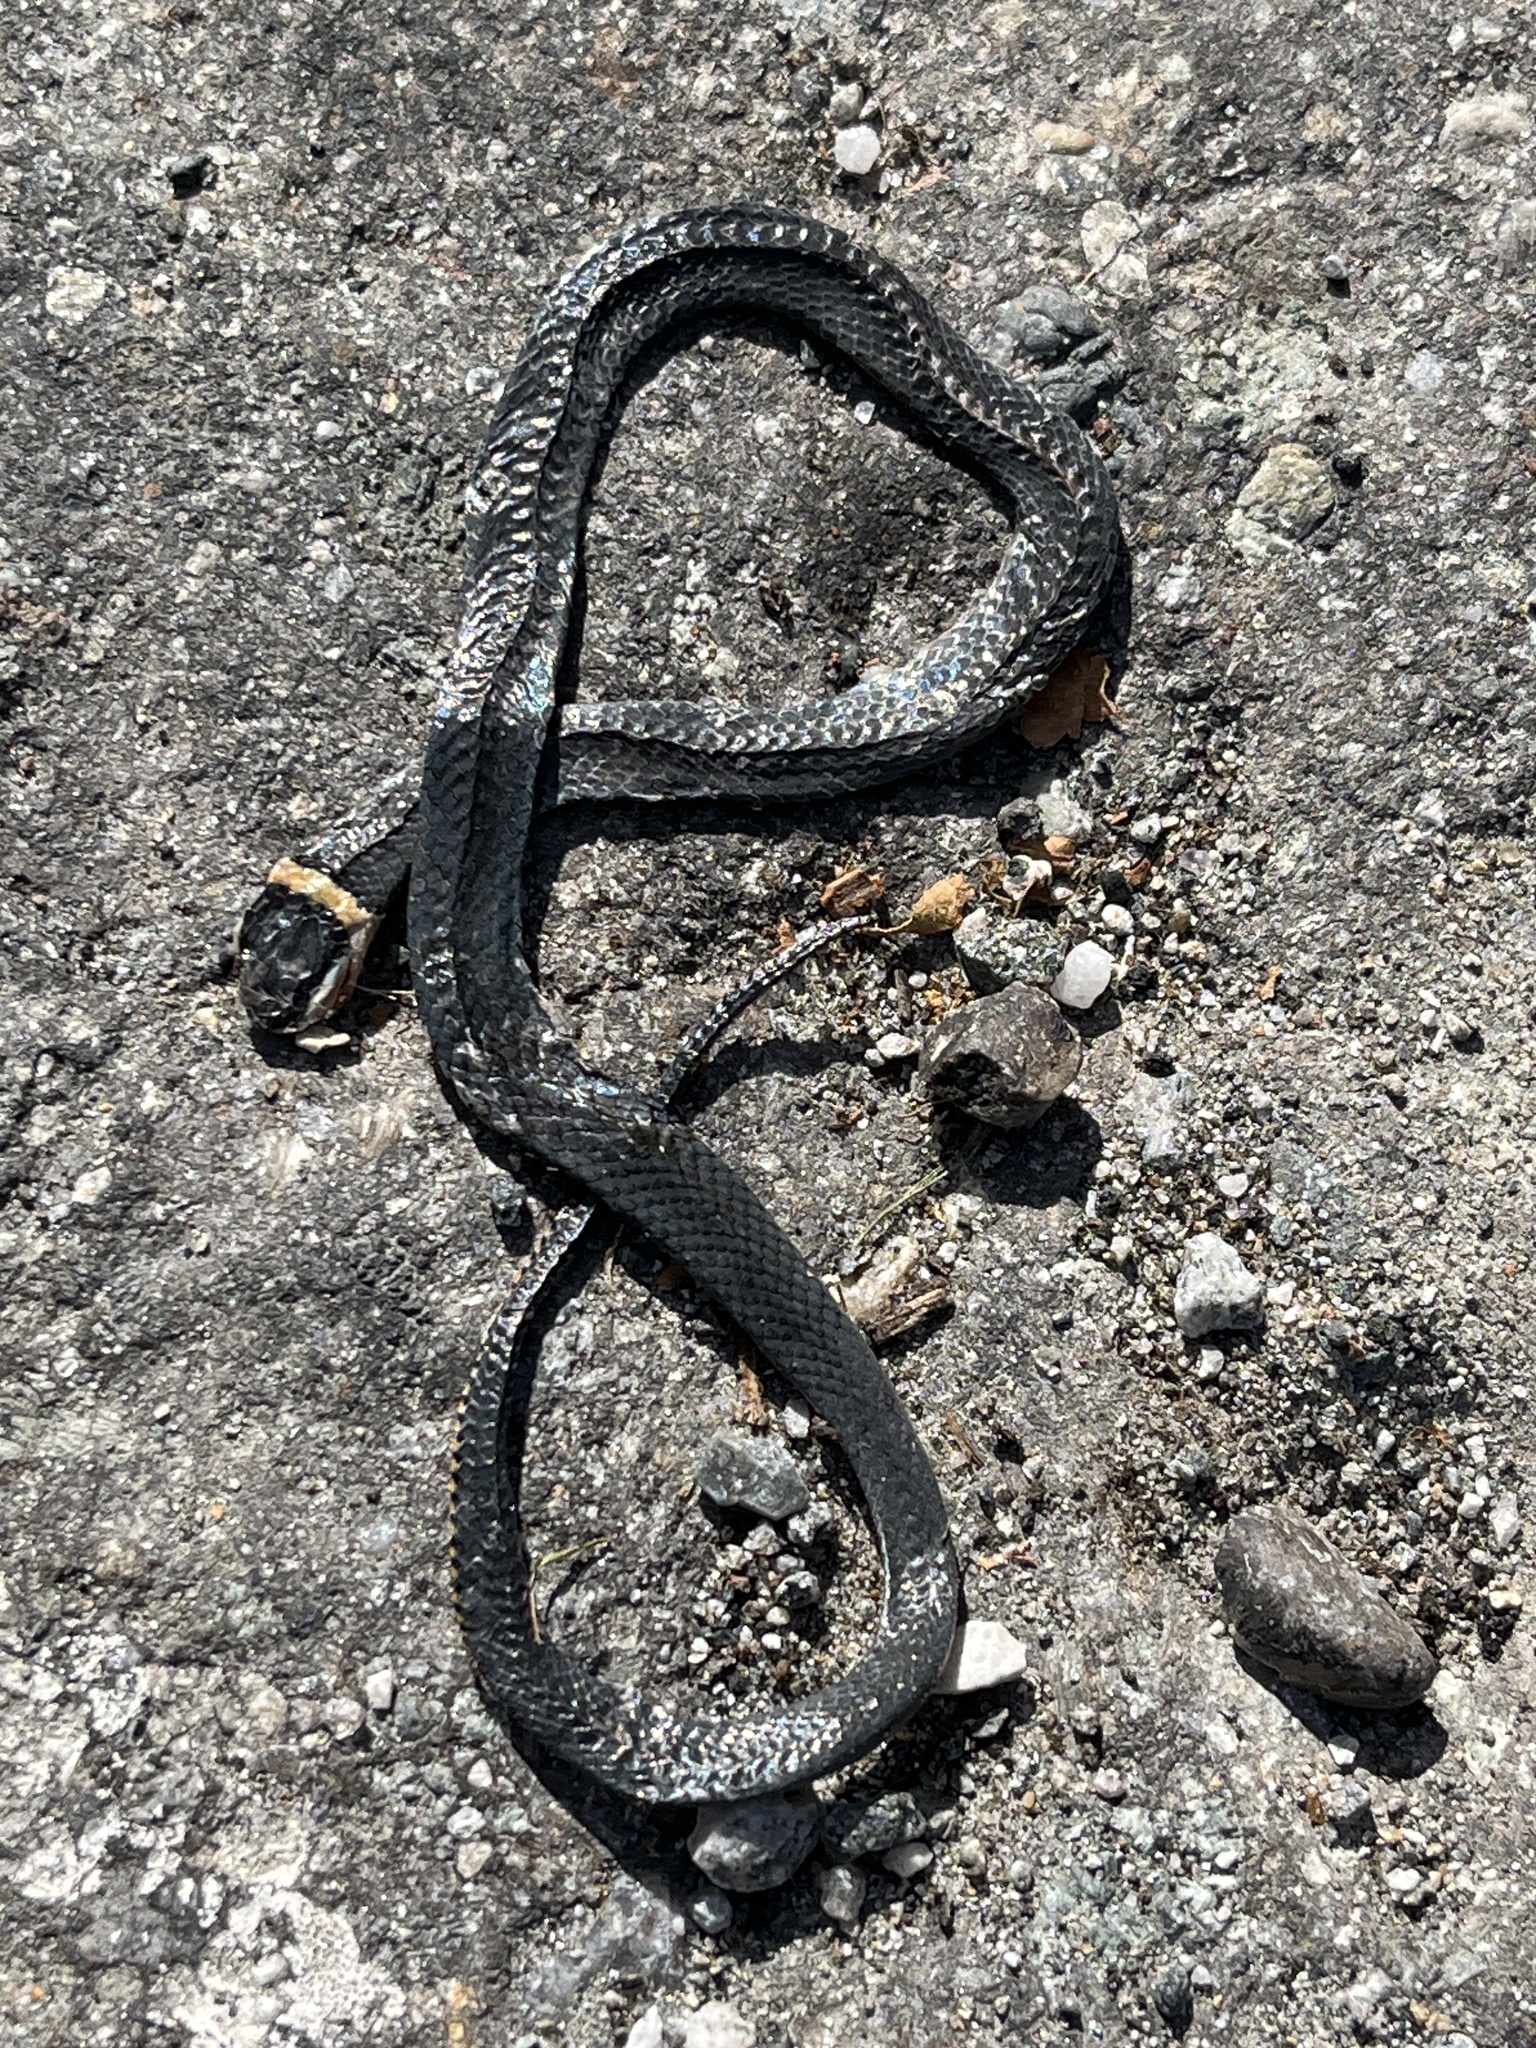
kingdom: Animalia
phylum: Chordata
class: Squamata
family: Colubridae
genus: Diadophis
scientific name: Diadophis punctatus
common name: Ringneck snake
